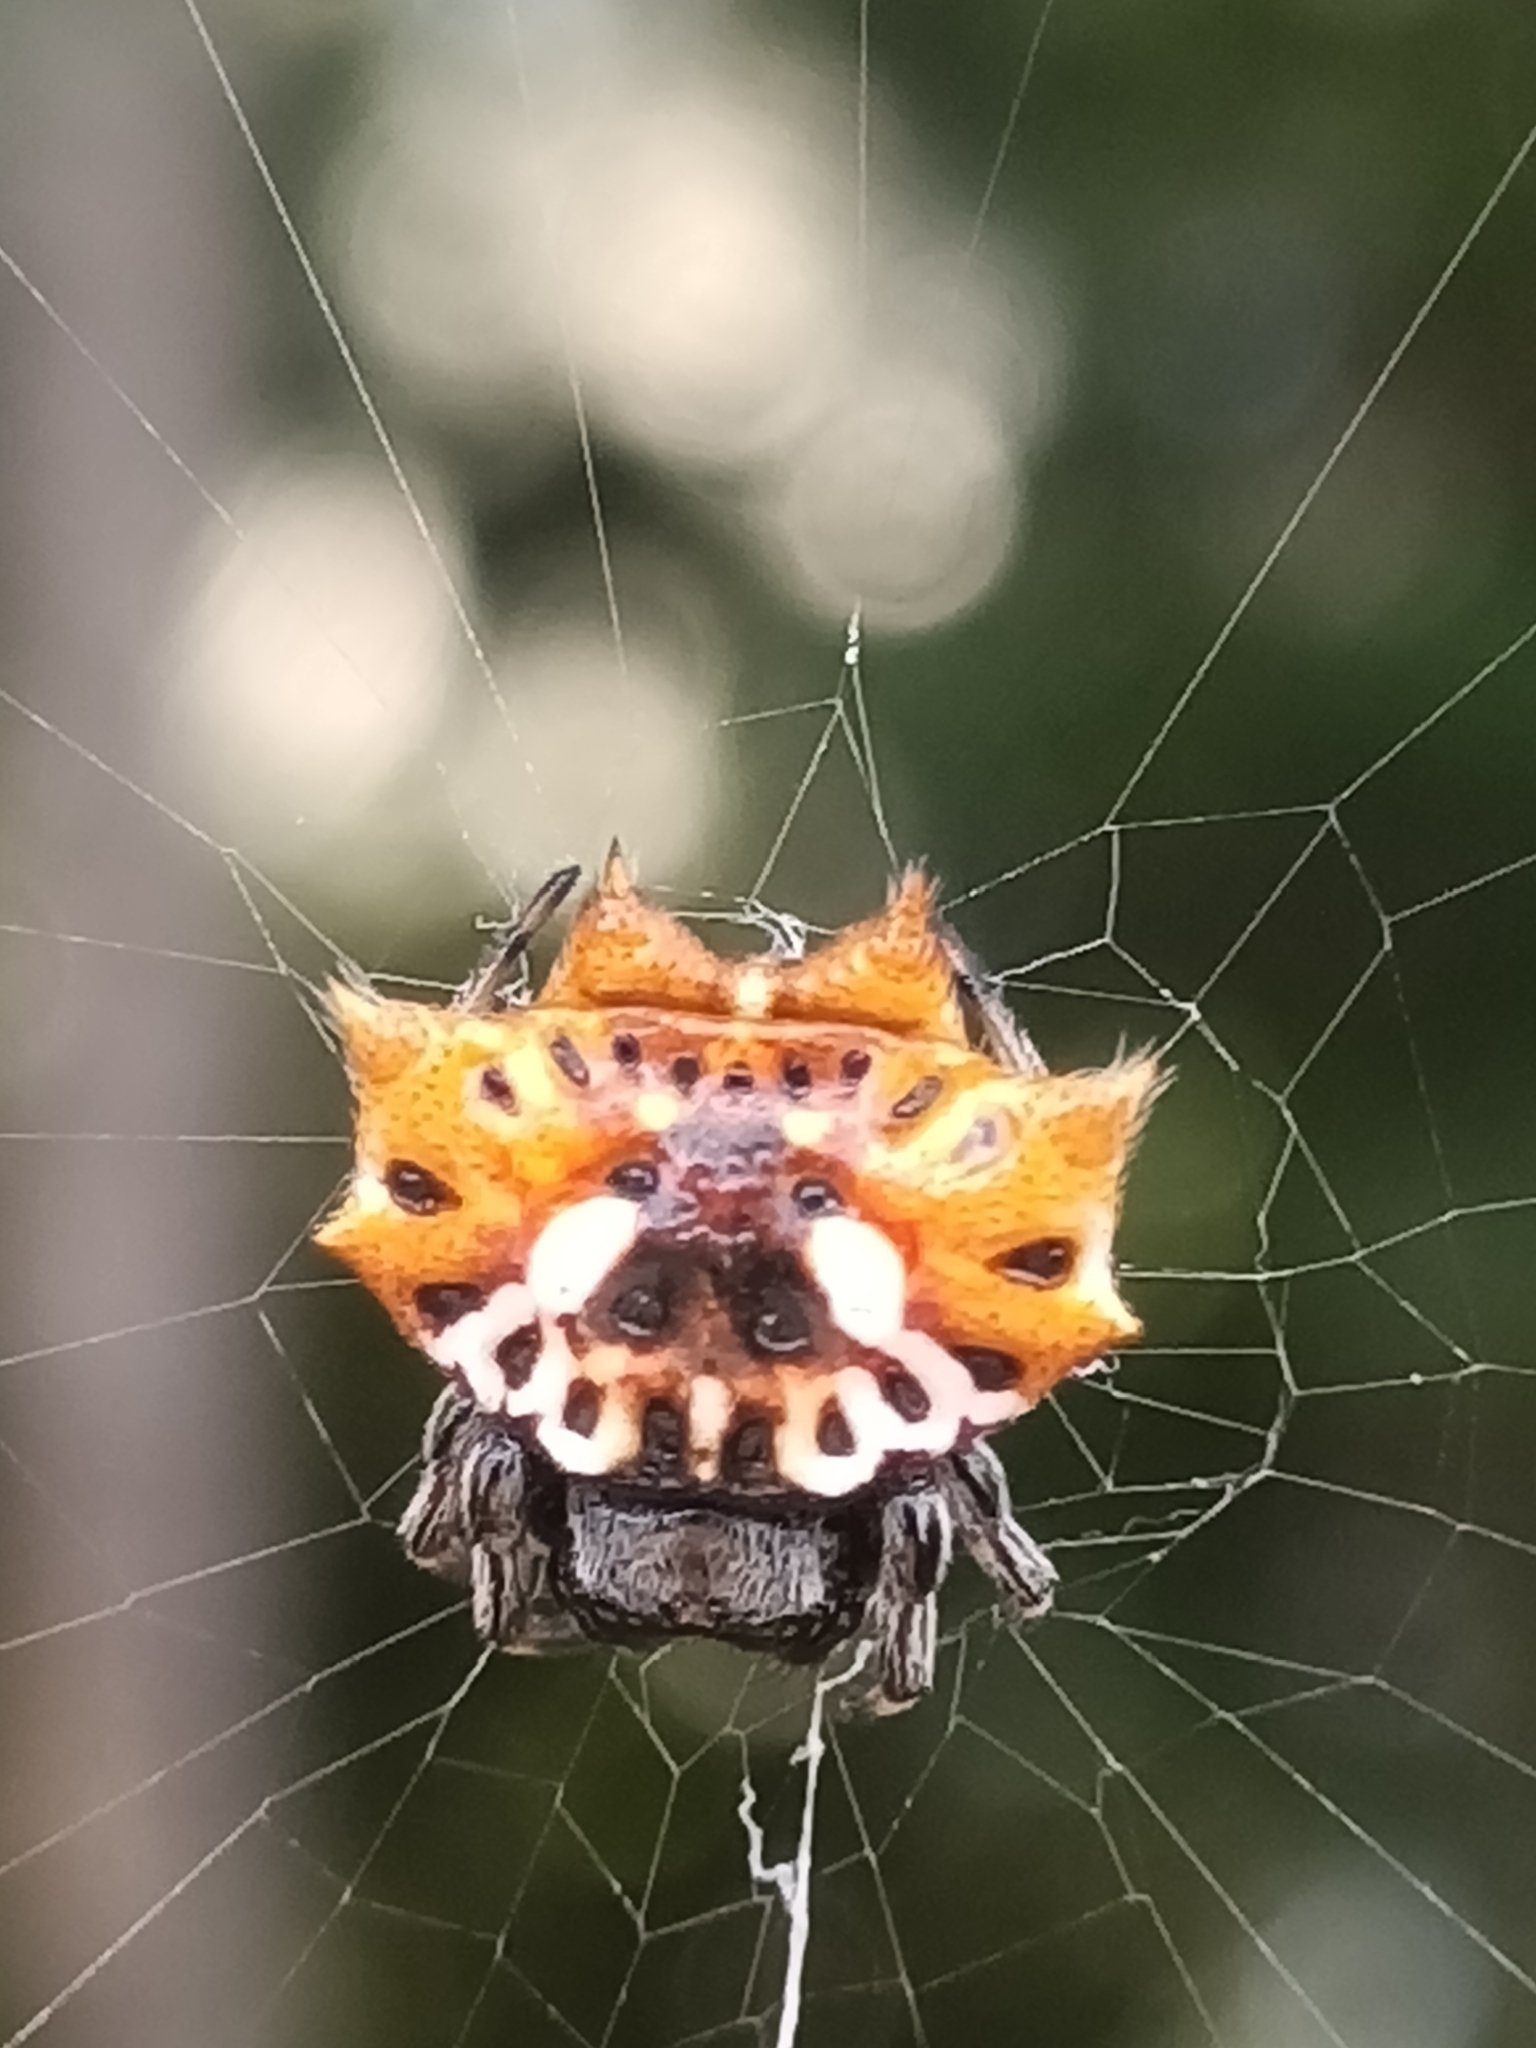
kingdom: Animalia
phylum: Arthropoda
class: Arachnida
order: Araneae
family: Araneidae
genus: Gasteracantha
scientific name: Gasteracantha sacerdotalis
